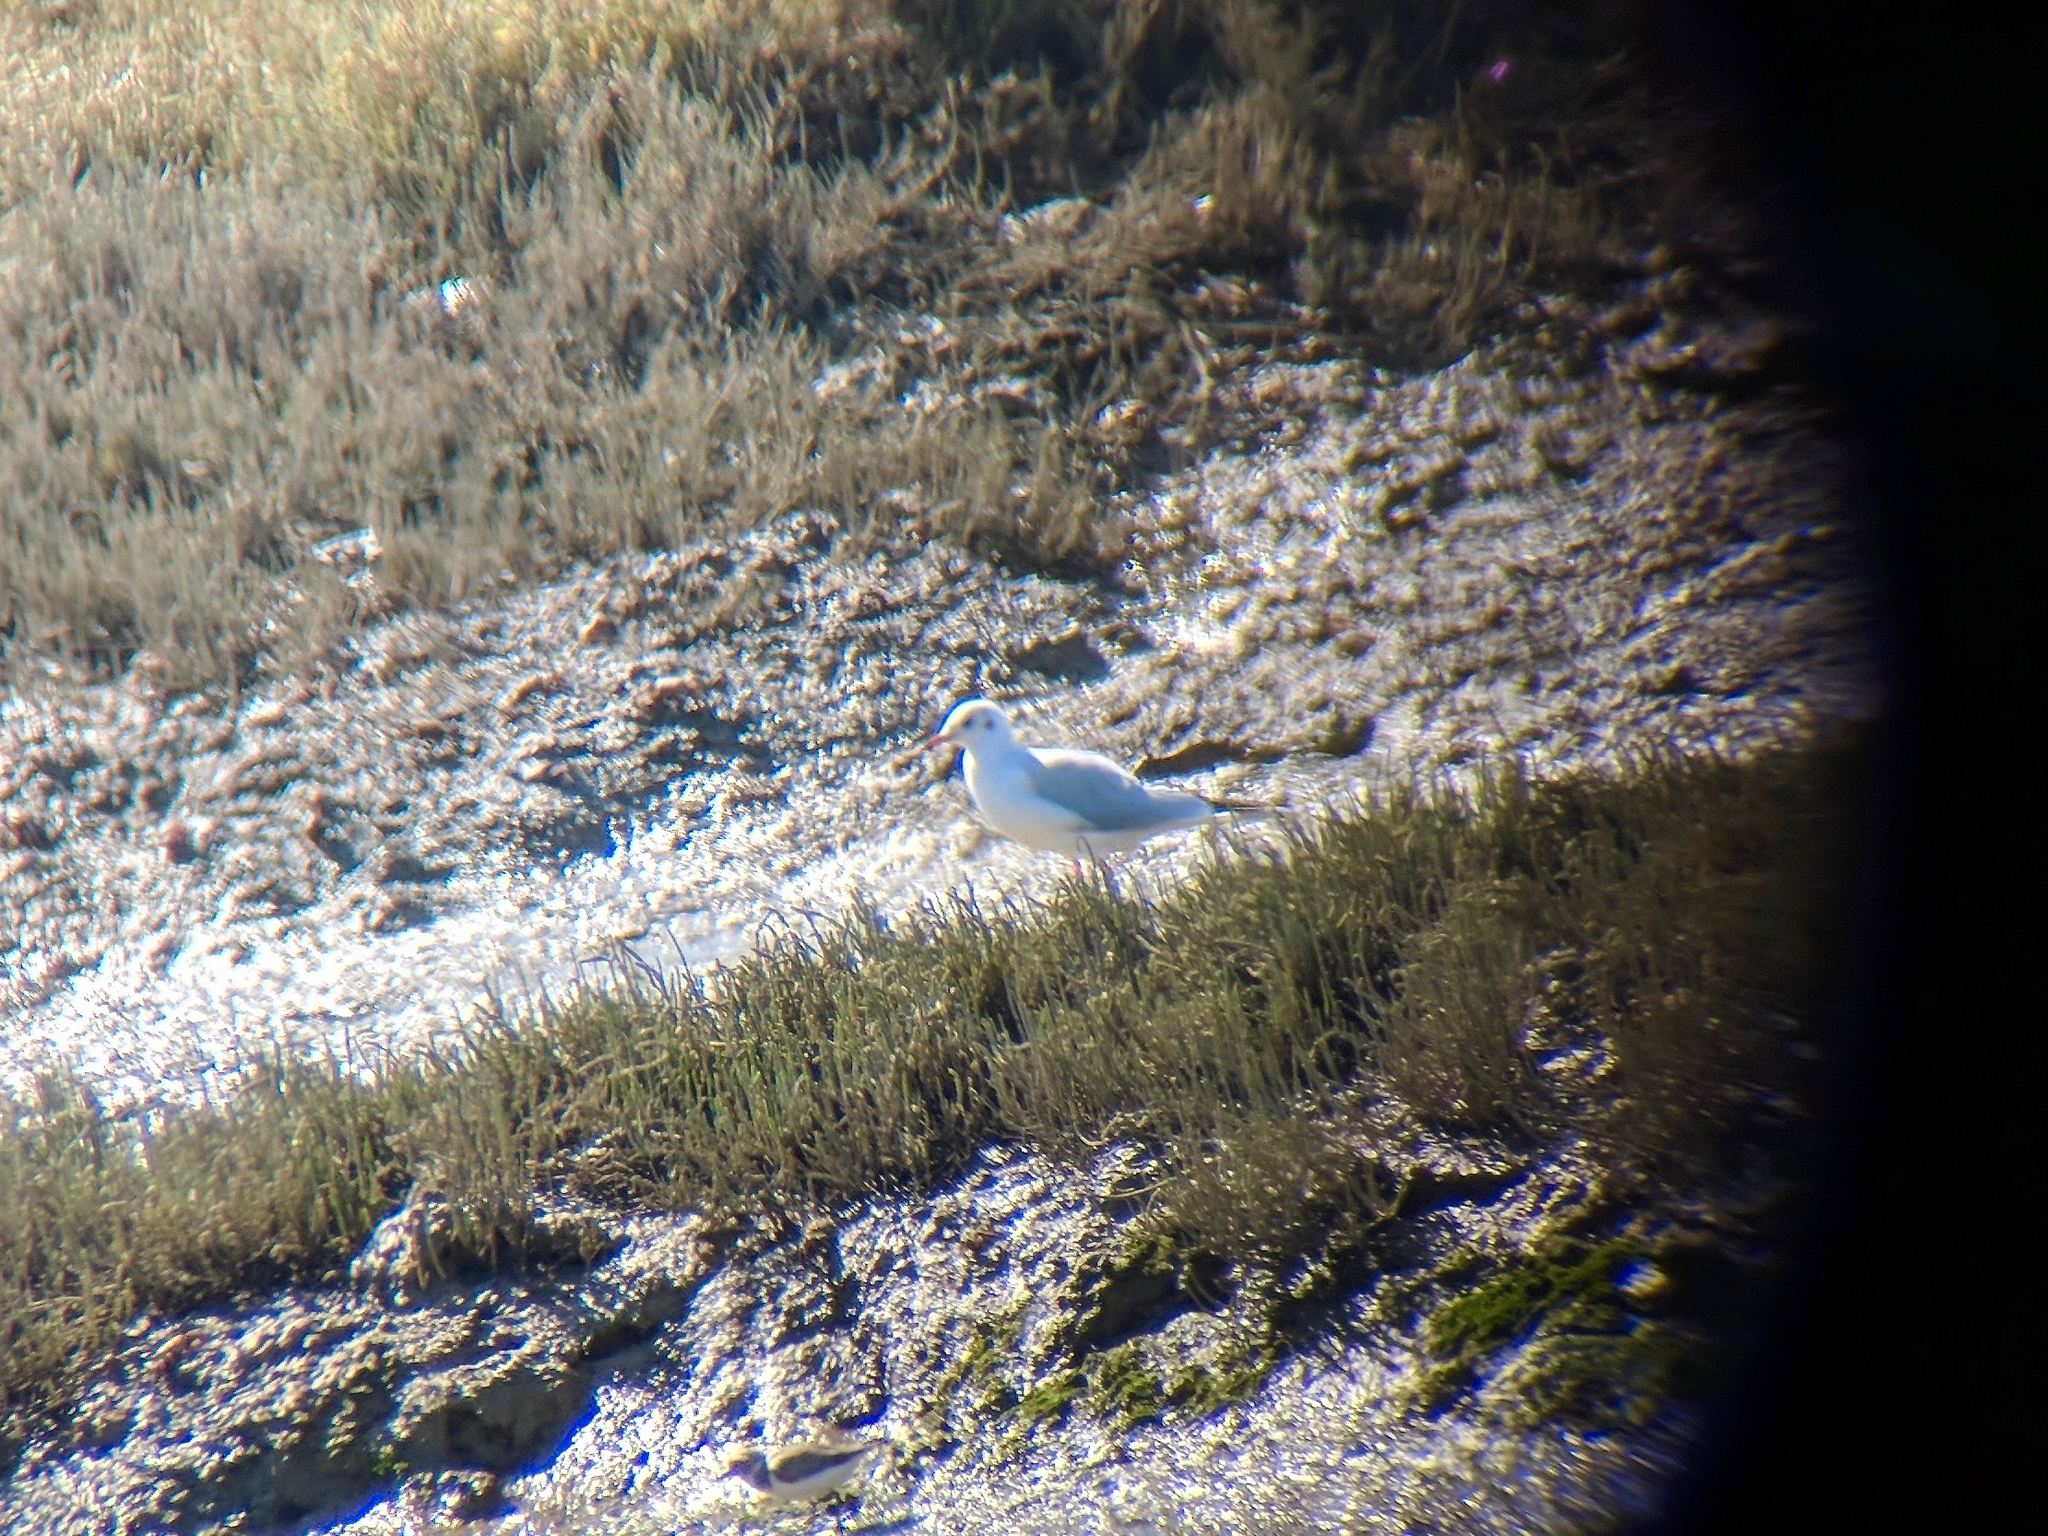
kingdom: Animalia
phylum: Chordata
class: Aves
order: Charadriiformes
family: Laridae
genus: Chroicocephalus
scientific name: Chroicocephalus ridibundus
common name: Black-headed gull
